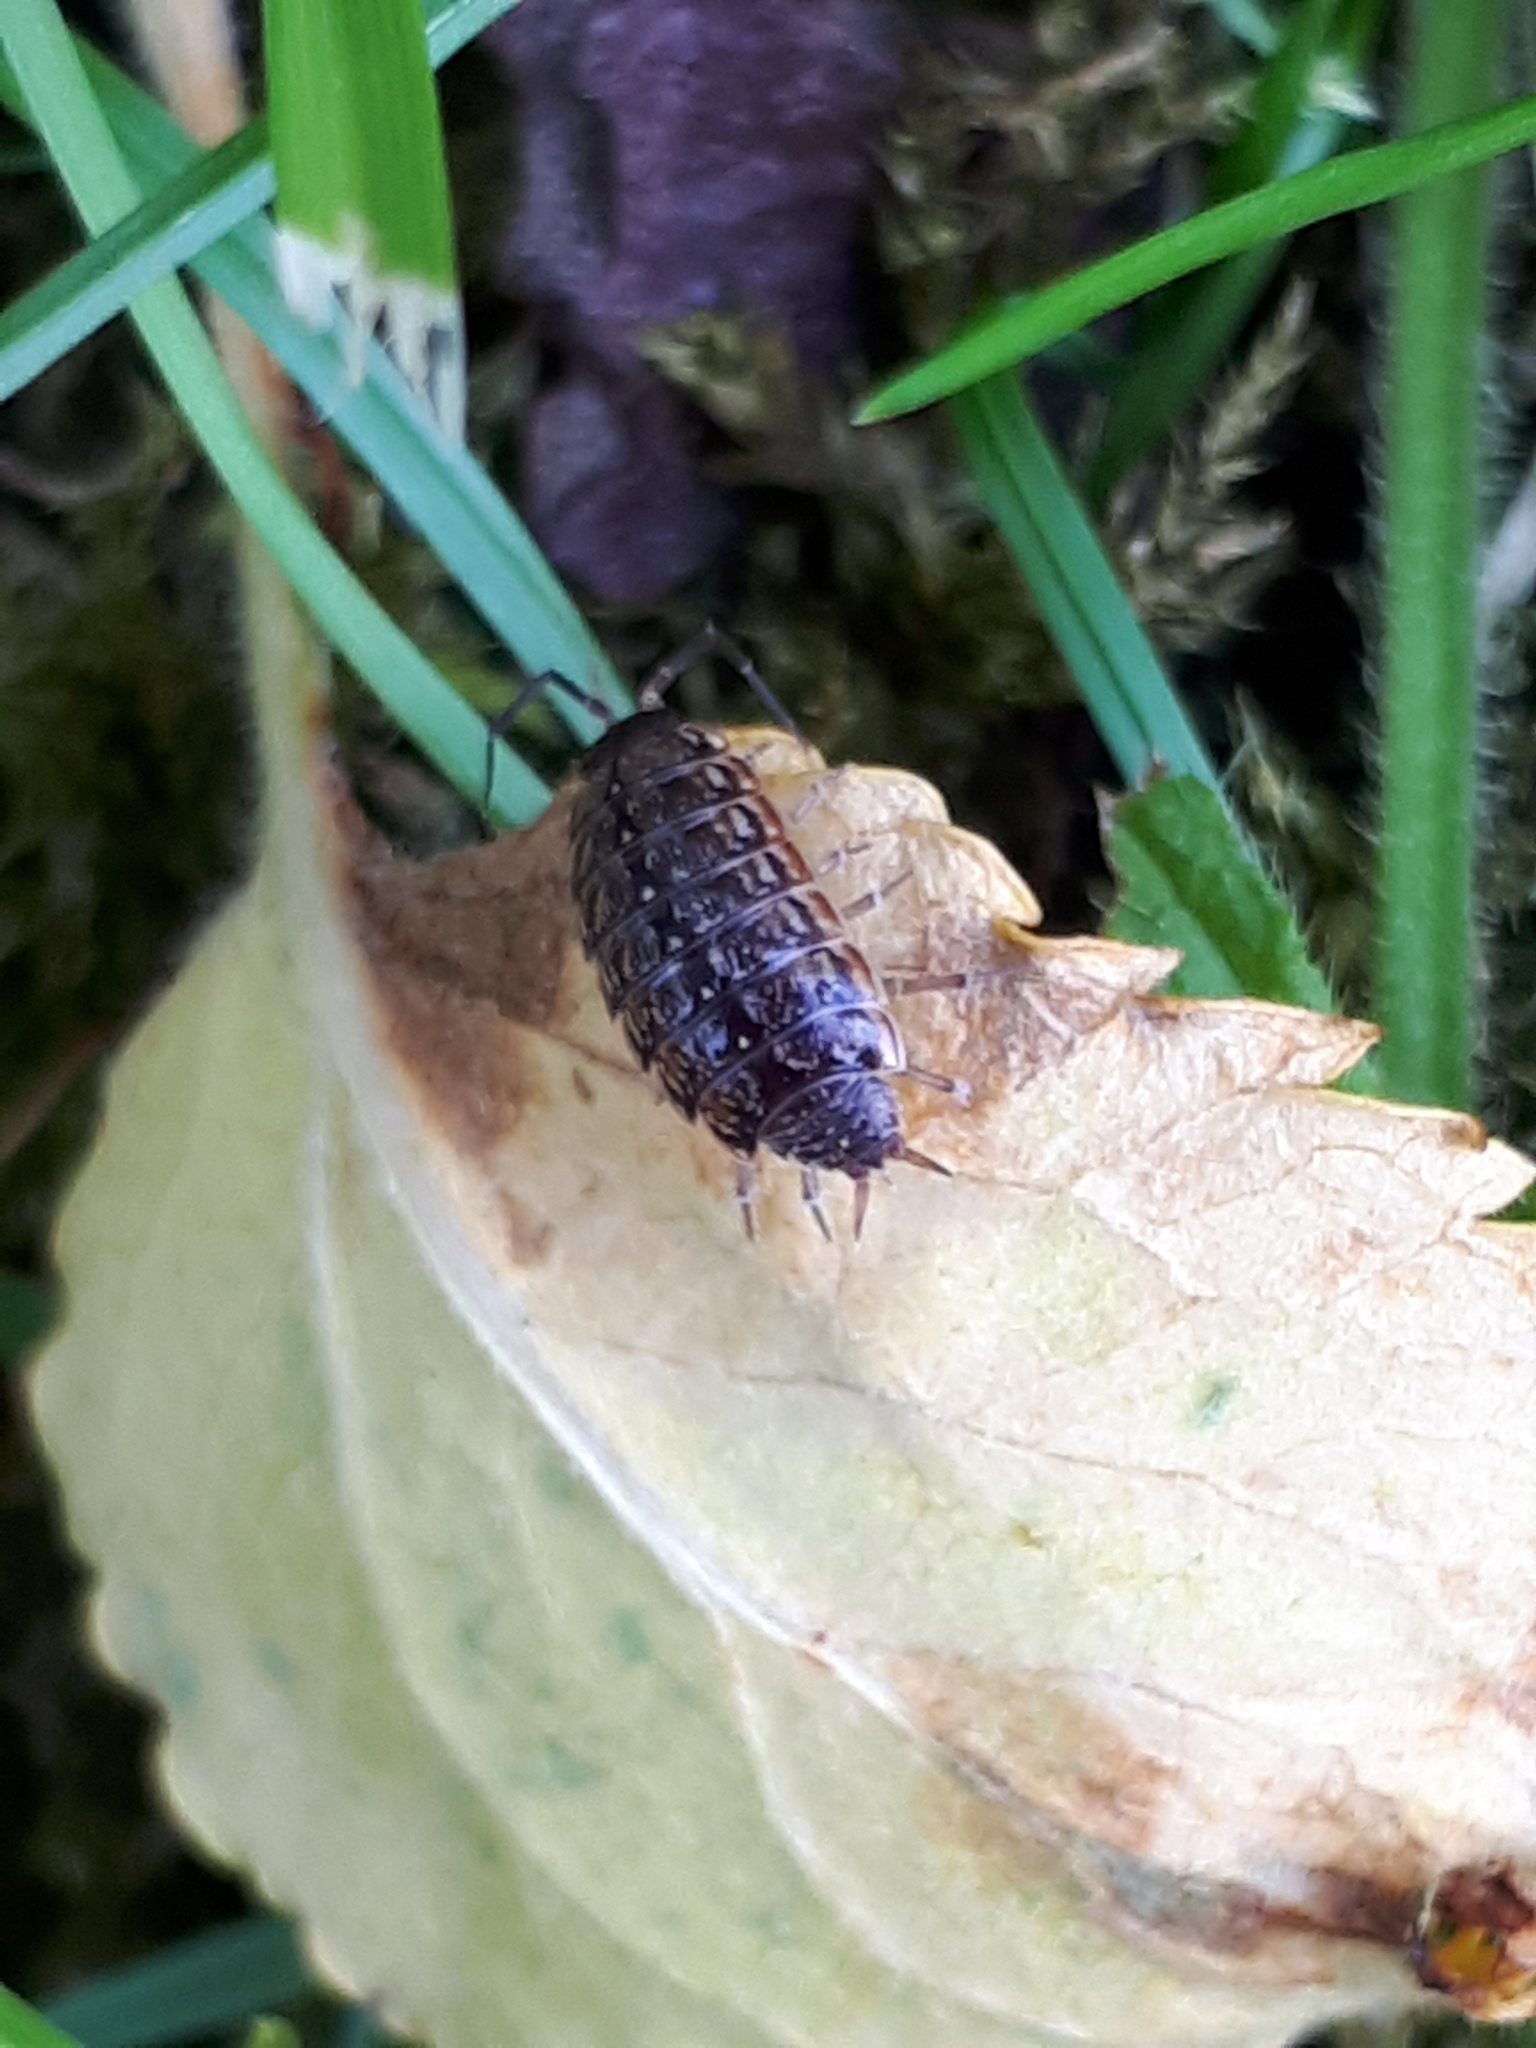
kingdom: Animalia
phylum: Arthropoda
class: Malacostraca
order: Isopoda
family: Philosciidae
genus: Philoscia
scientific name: Philoscia muscorum
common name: Common striped woodlouse
